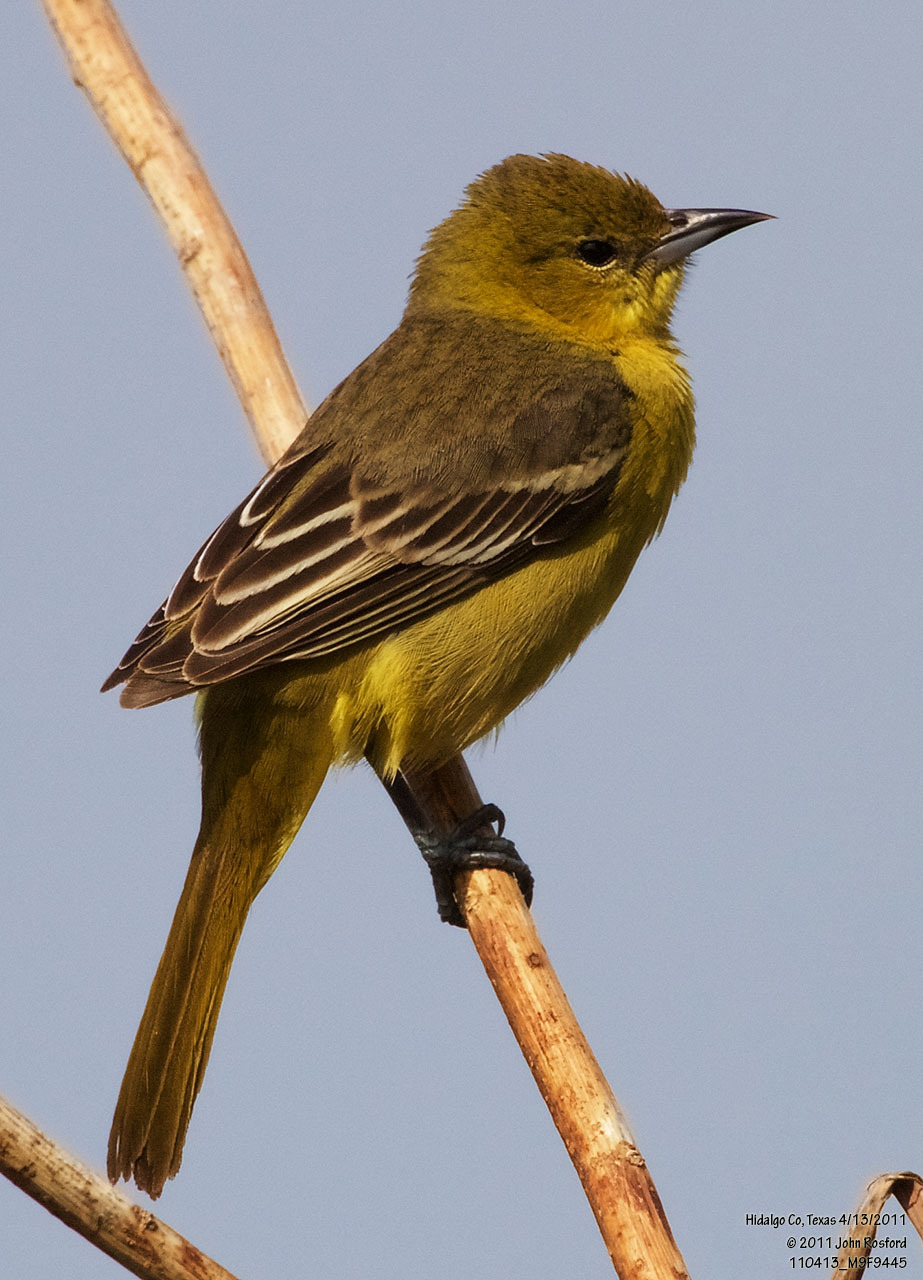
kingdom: Animalia
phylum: Chordata
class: Aves
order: Passeriformes
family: Icteridae
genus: Icterus
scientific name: Icterus spurius
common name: Orchard oriole
